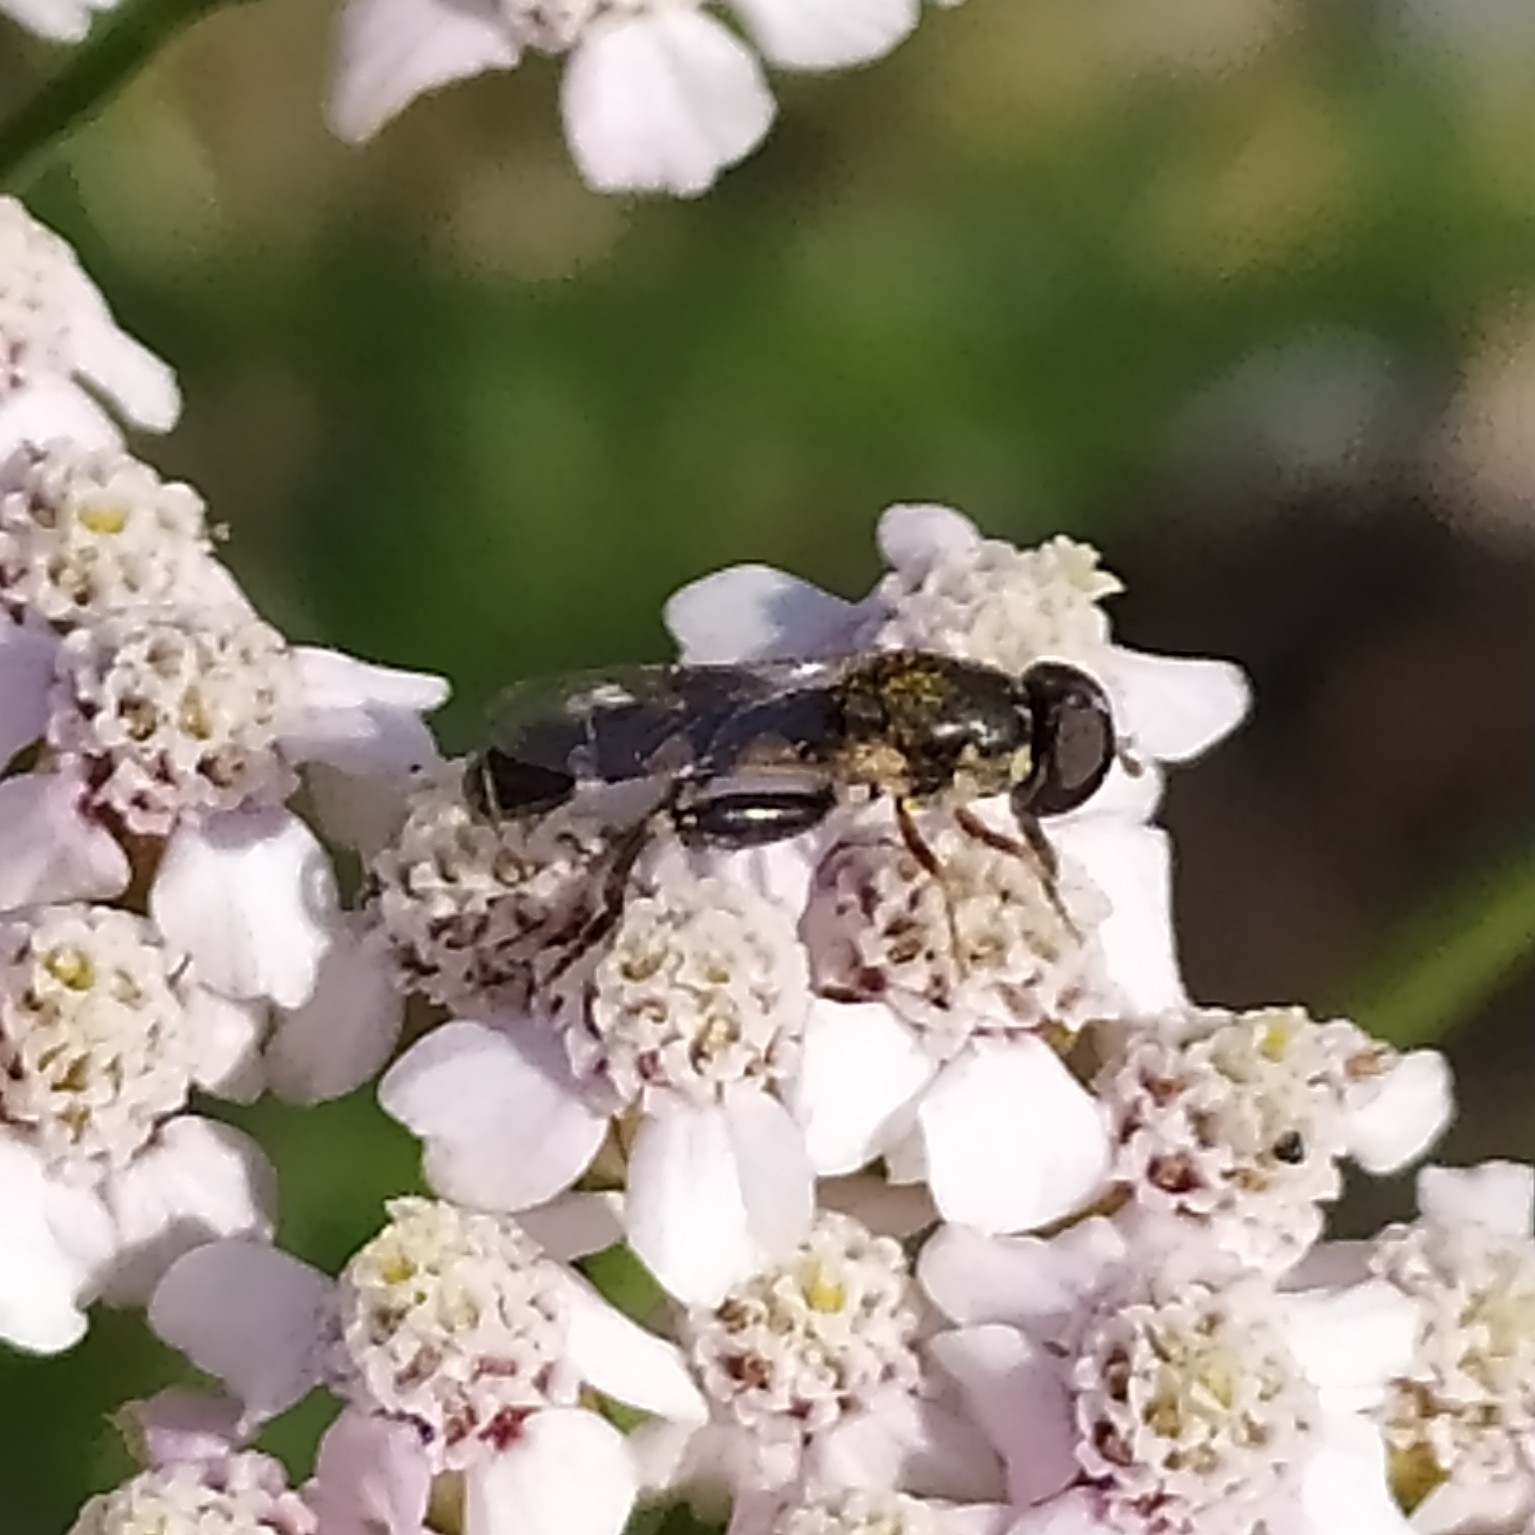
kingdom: Animalia
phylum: Arthropoda
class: Insecta
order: Diptera
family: Syrphidae
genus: Syritta
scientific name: Syritta pipiens
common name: Hover fly
